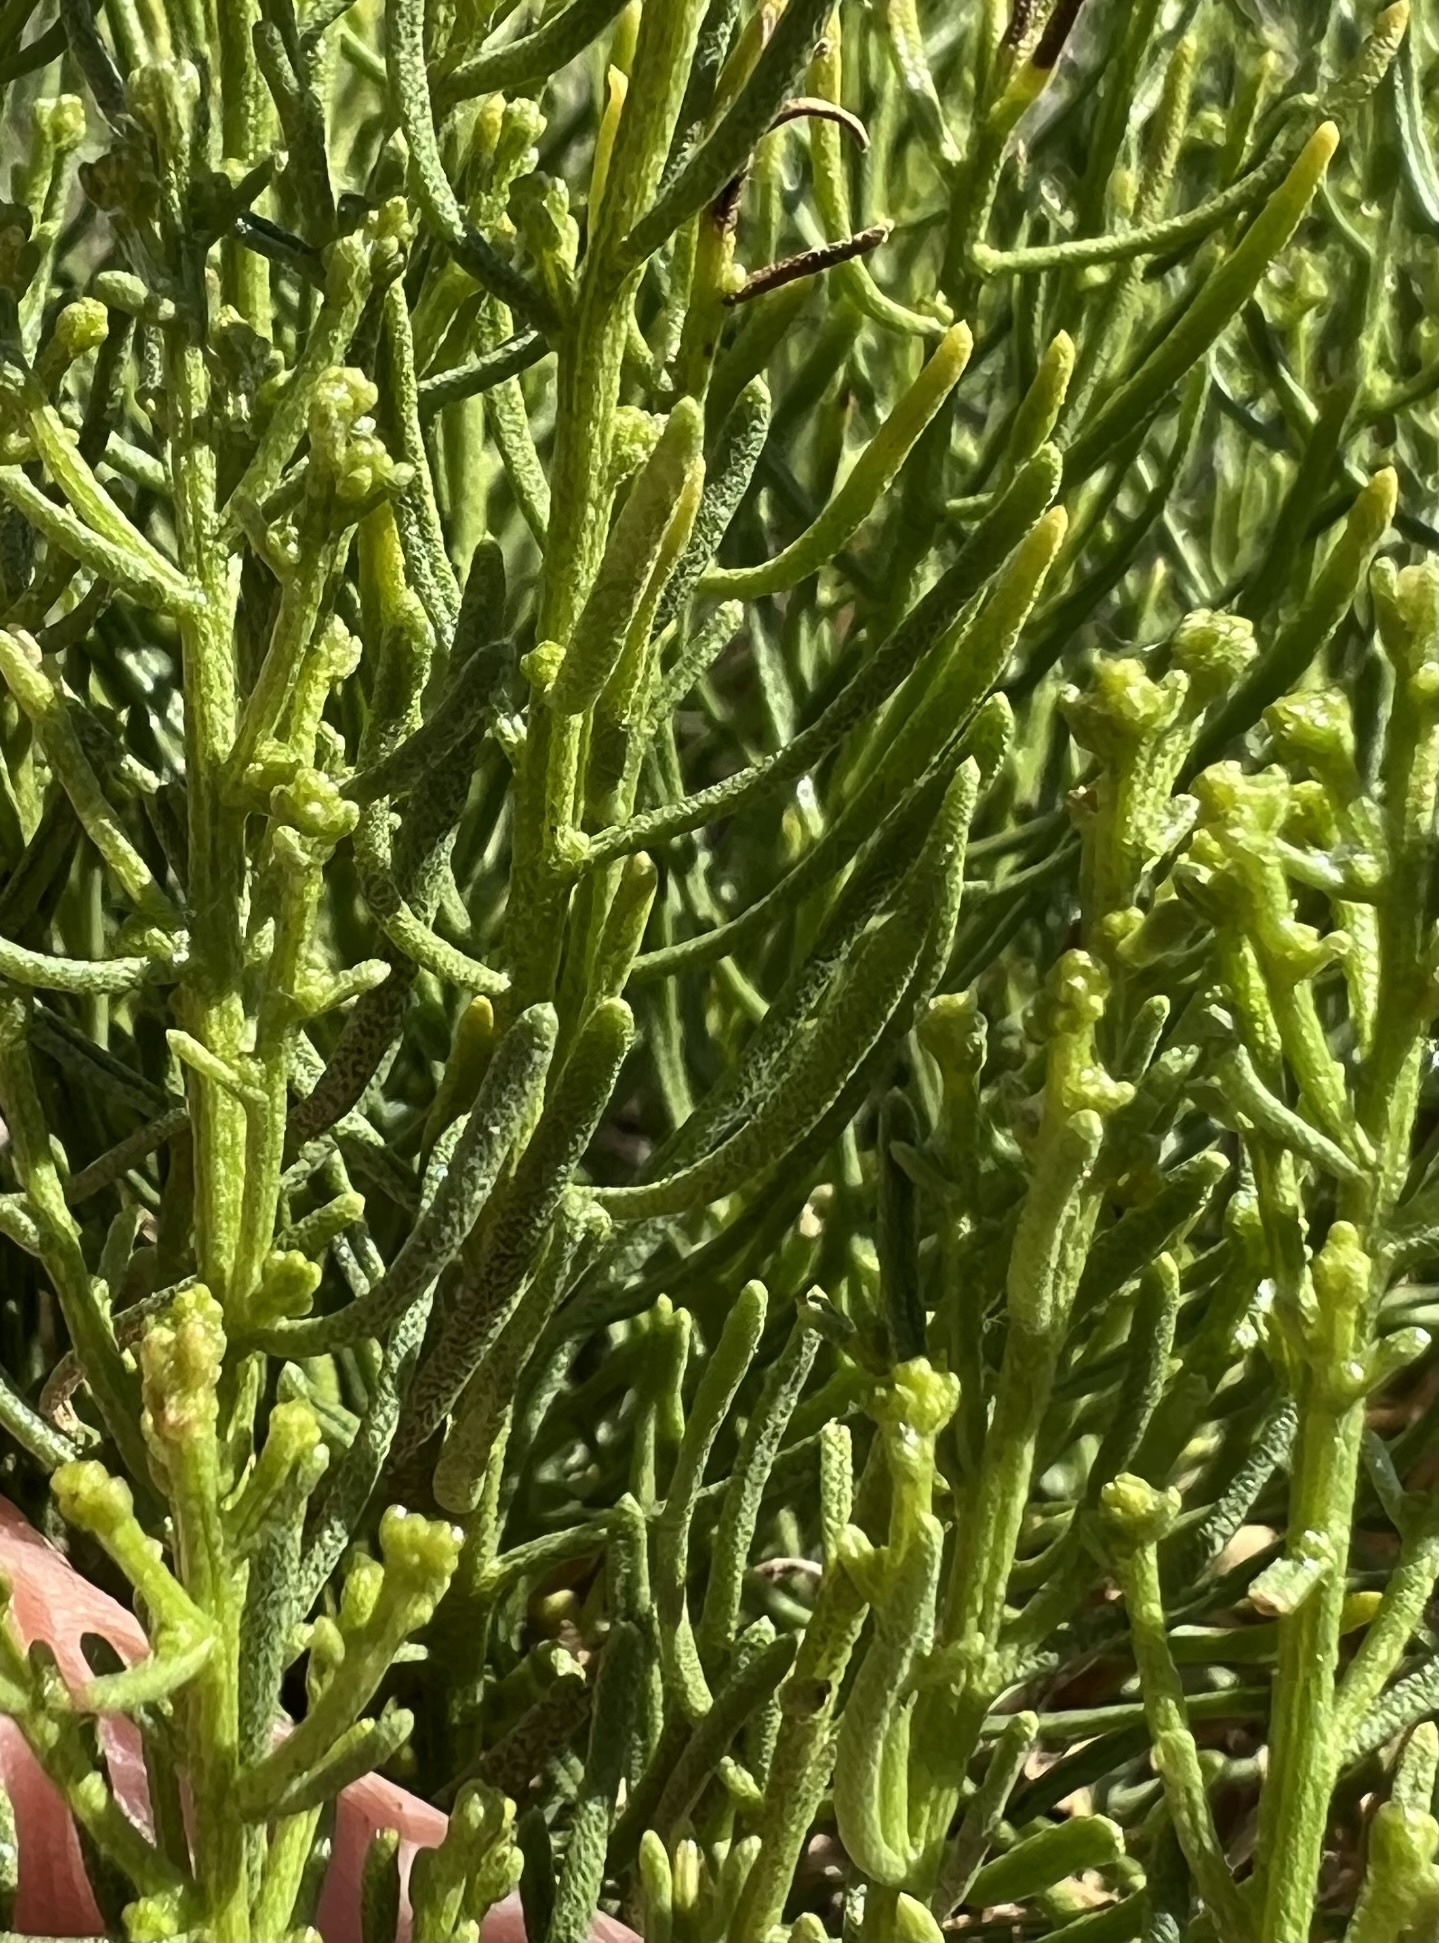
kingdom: Plantae
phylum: Tracheophyta
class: Magnoliopsida
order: Asterales
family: Asteraceae
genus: Ericameria
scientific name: Ericameria teretifolia
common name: Round-leaf rabbitbrush
